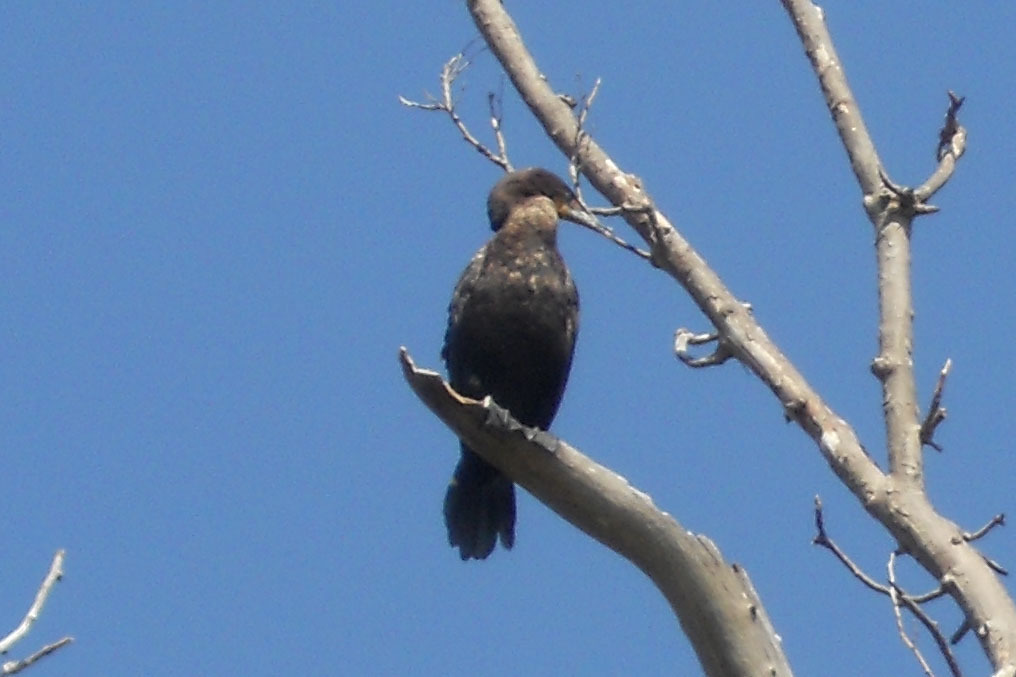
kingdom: Animalia
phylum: Chordata
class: Aves
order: Suliformes
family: Phalacrocoracidae
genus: Phalacrocorax
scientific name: Phalacrocorax auritus
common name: Double-crested cormorant
